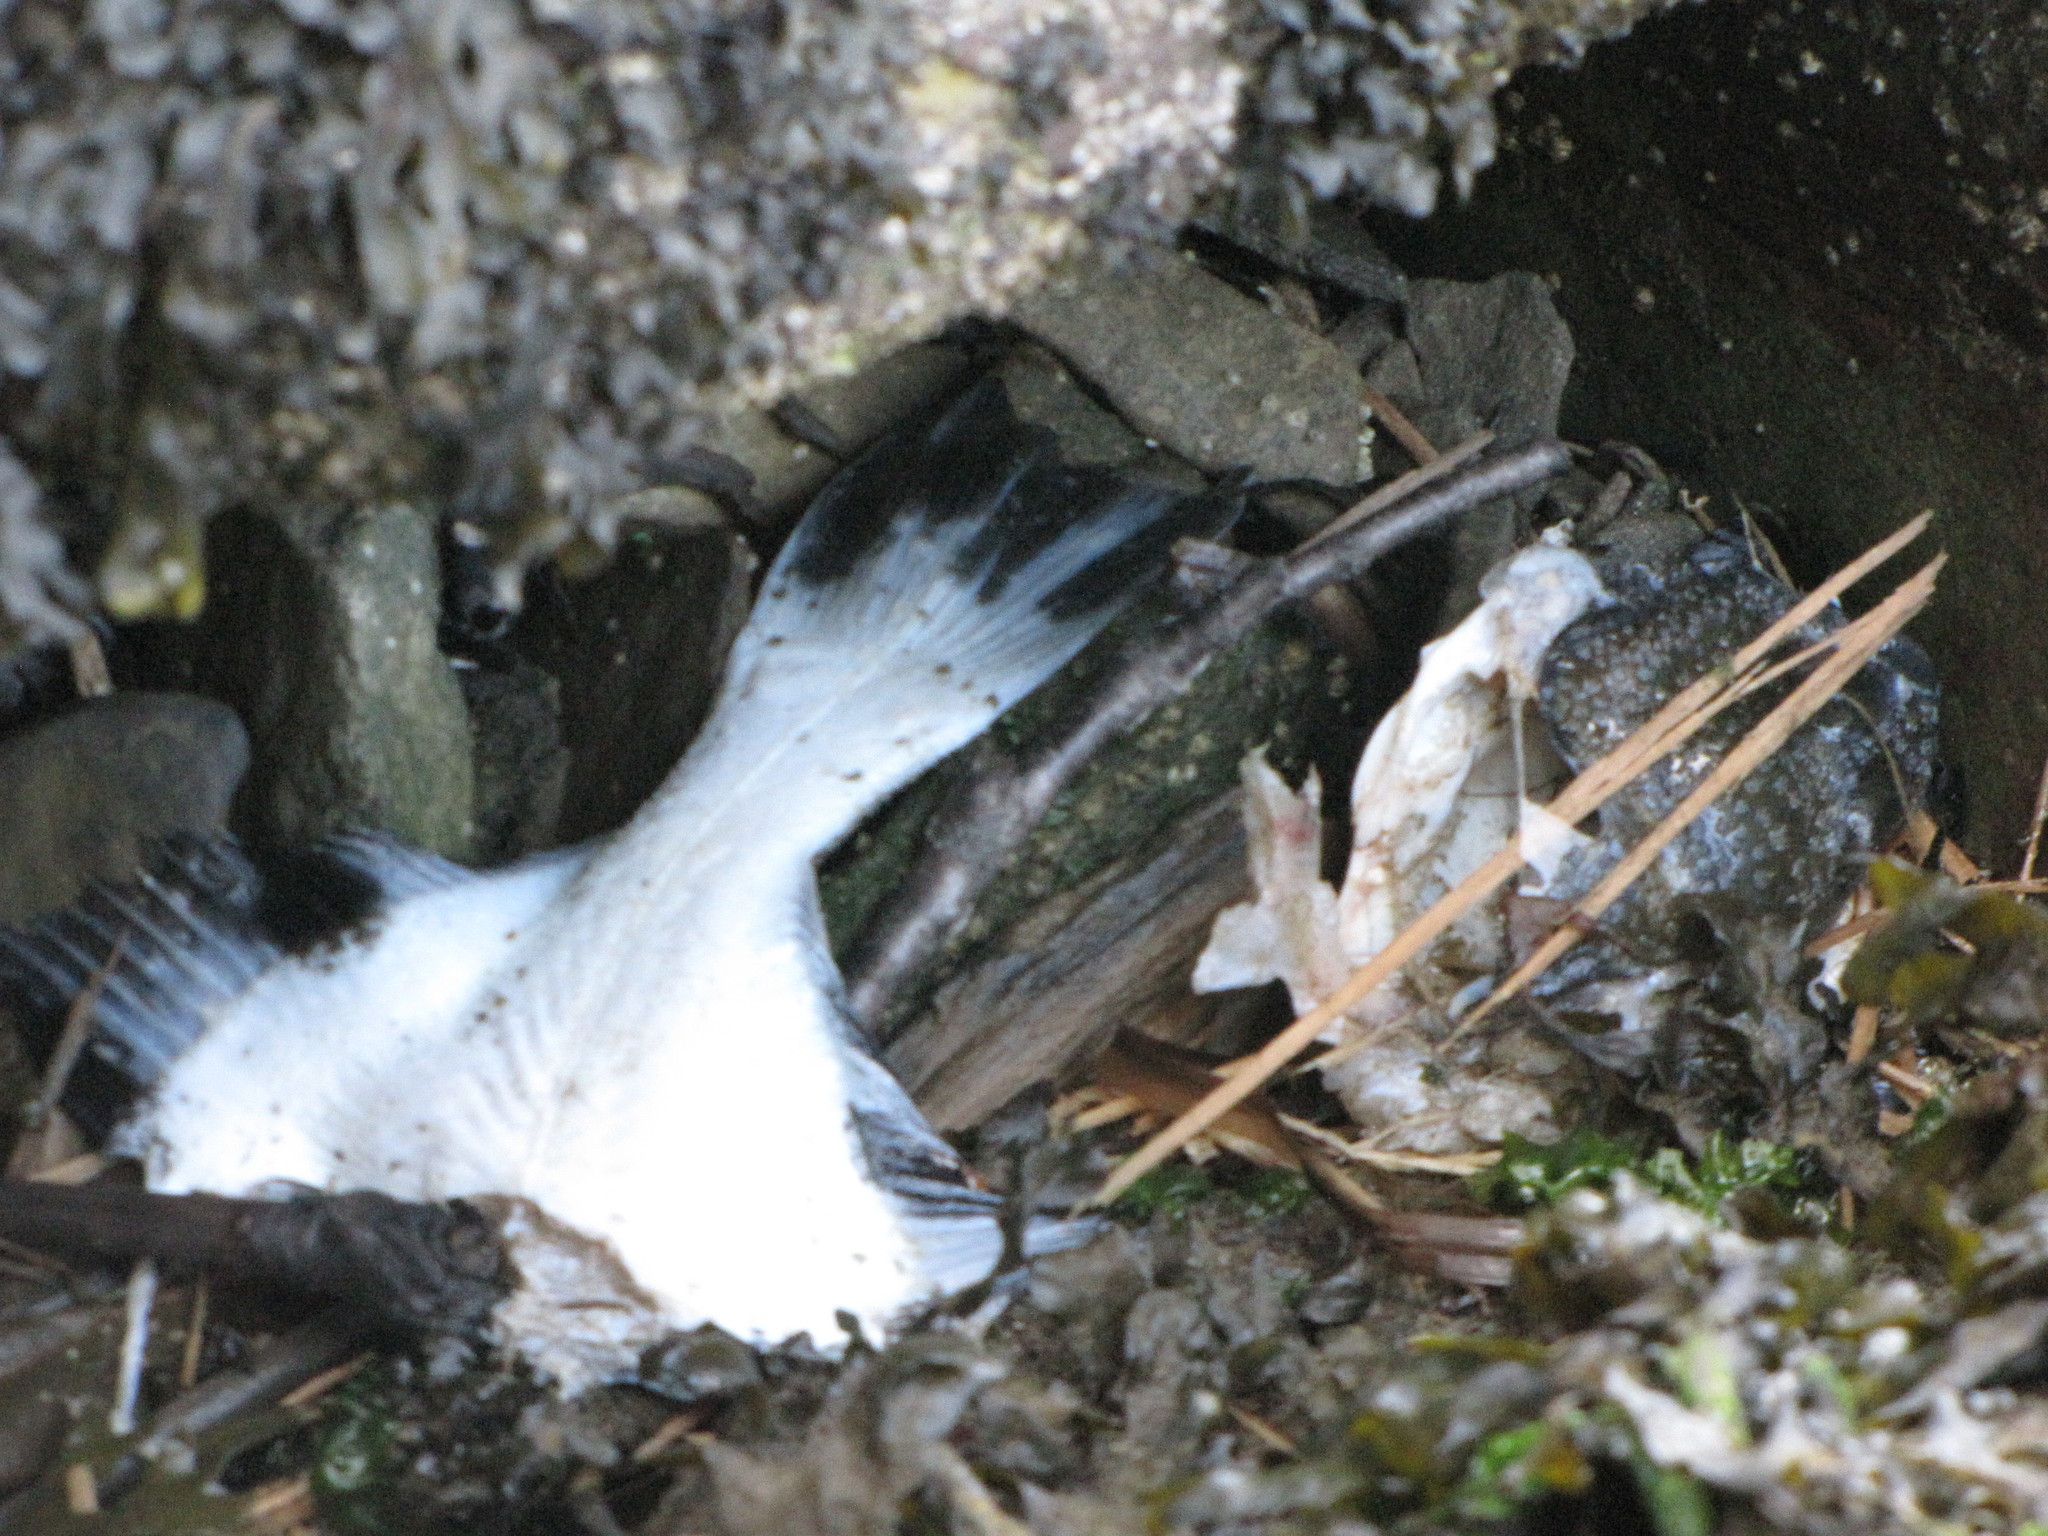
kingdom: Animalia
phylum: Chordata
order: Pleuronectiformes
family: Pleuronectidae
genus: Platichthys
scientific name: Platichthys stellatus
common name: Starry flounder
